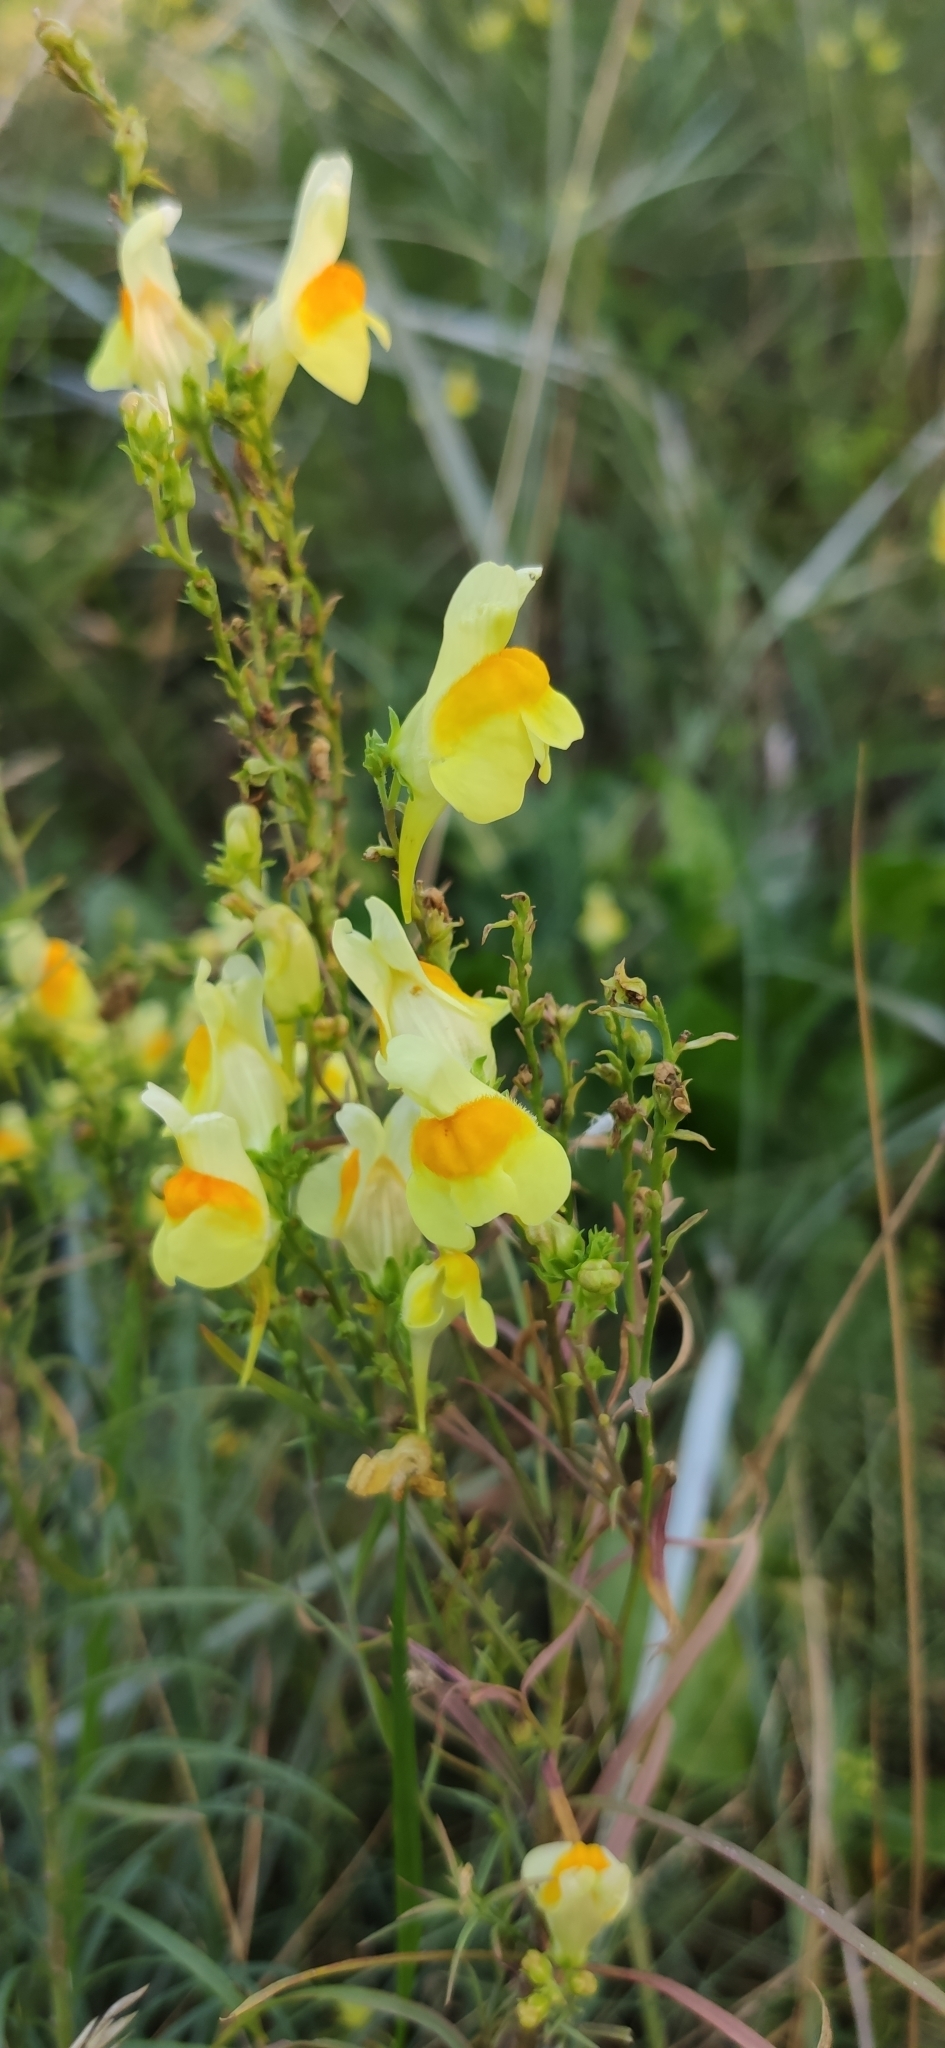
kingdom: Plantae
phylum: Tracheophyta
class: Magnoliopsida
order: Lamiales
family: Plantaginaceae
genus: Linaria
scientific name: Linaria vulgaris
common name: Butter and eggs
